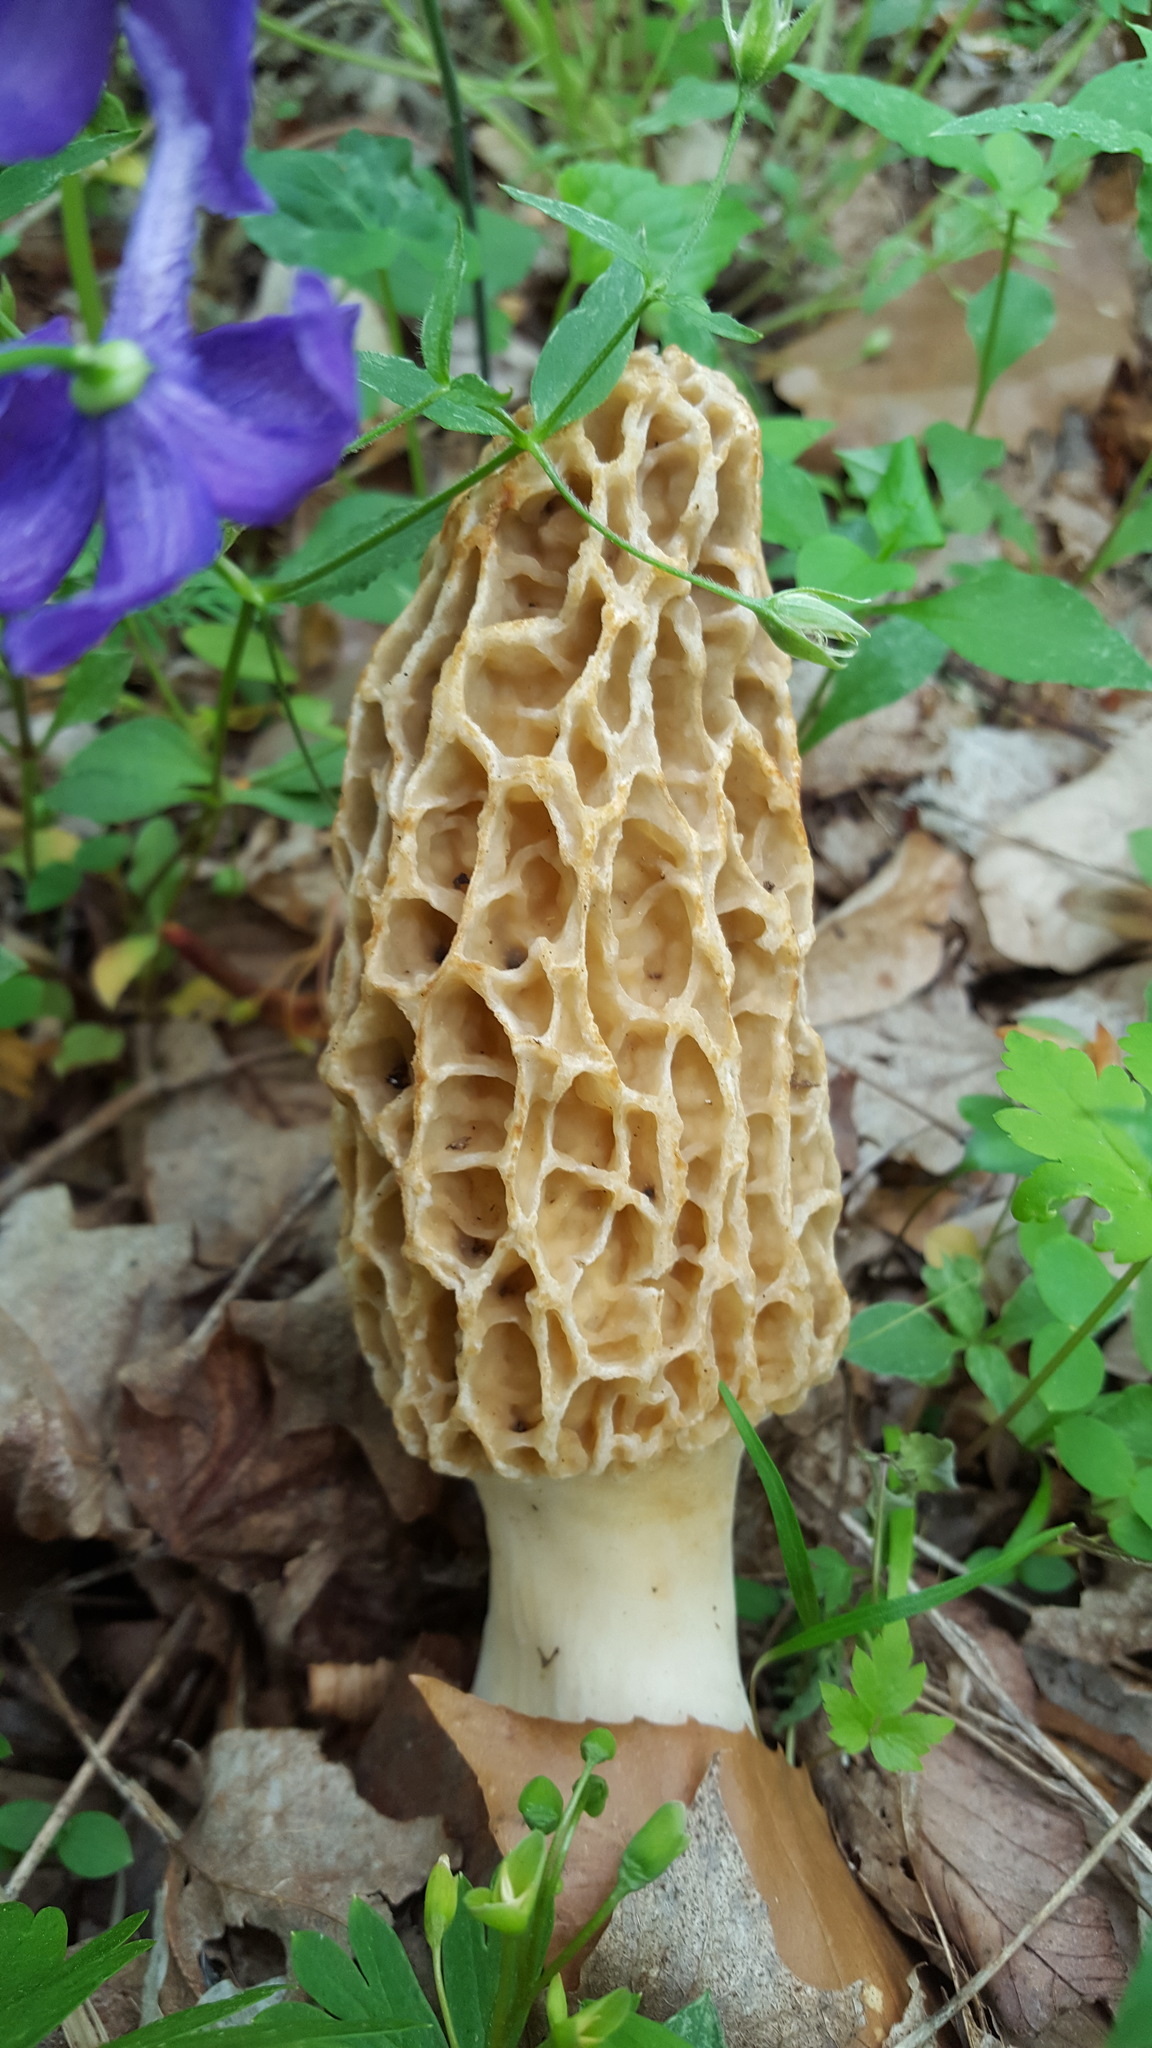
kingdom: Fungi
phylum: Ascomycota
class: Pezizomycetes
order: Pezizales
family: Morchellaceae
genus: Morchella
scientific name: Morchella americana
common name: White morel
